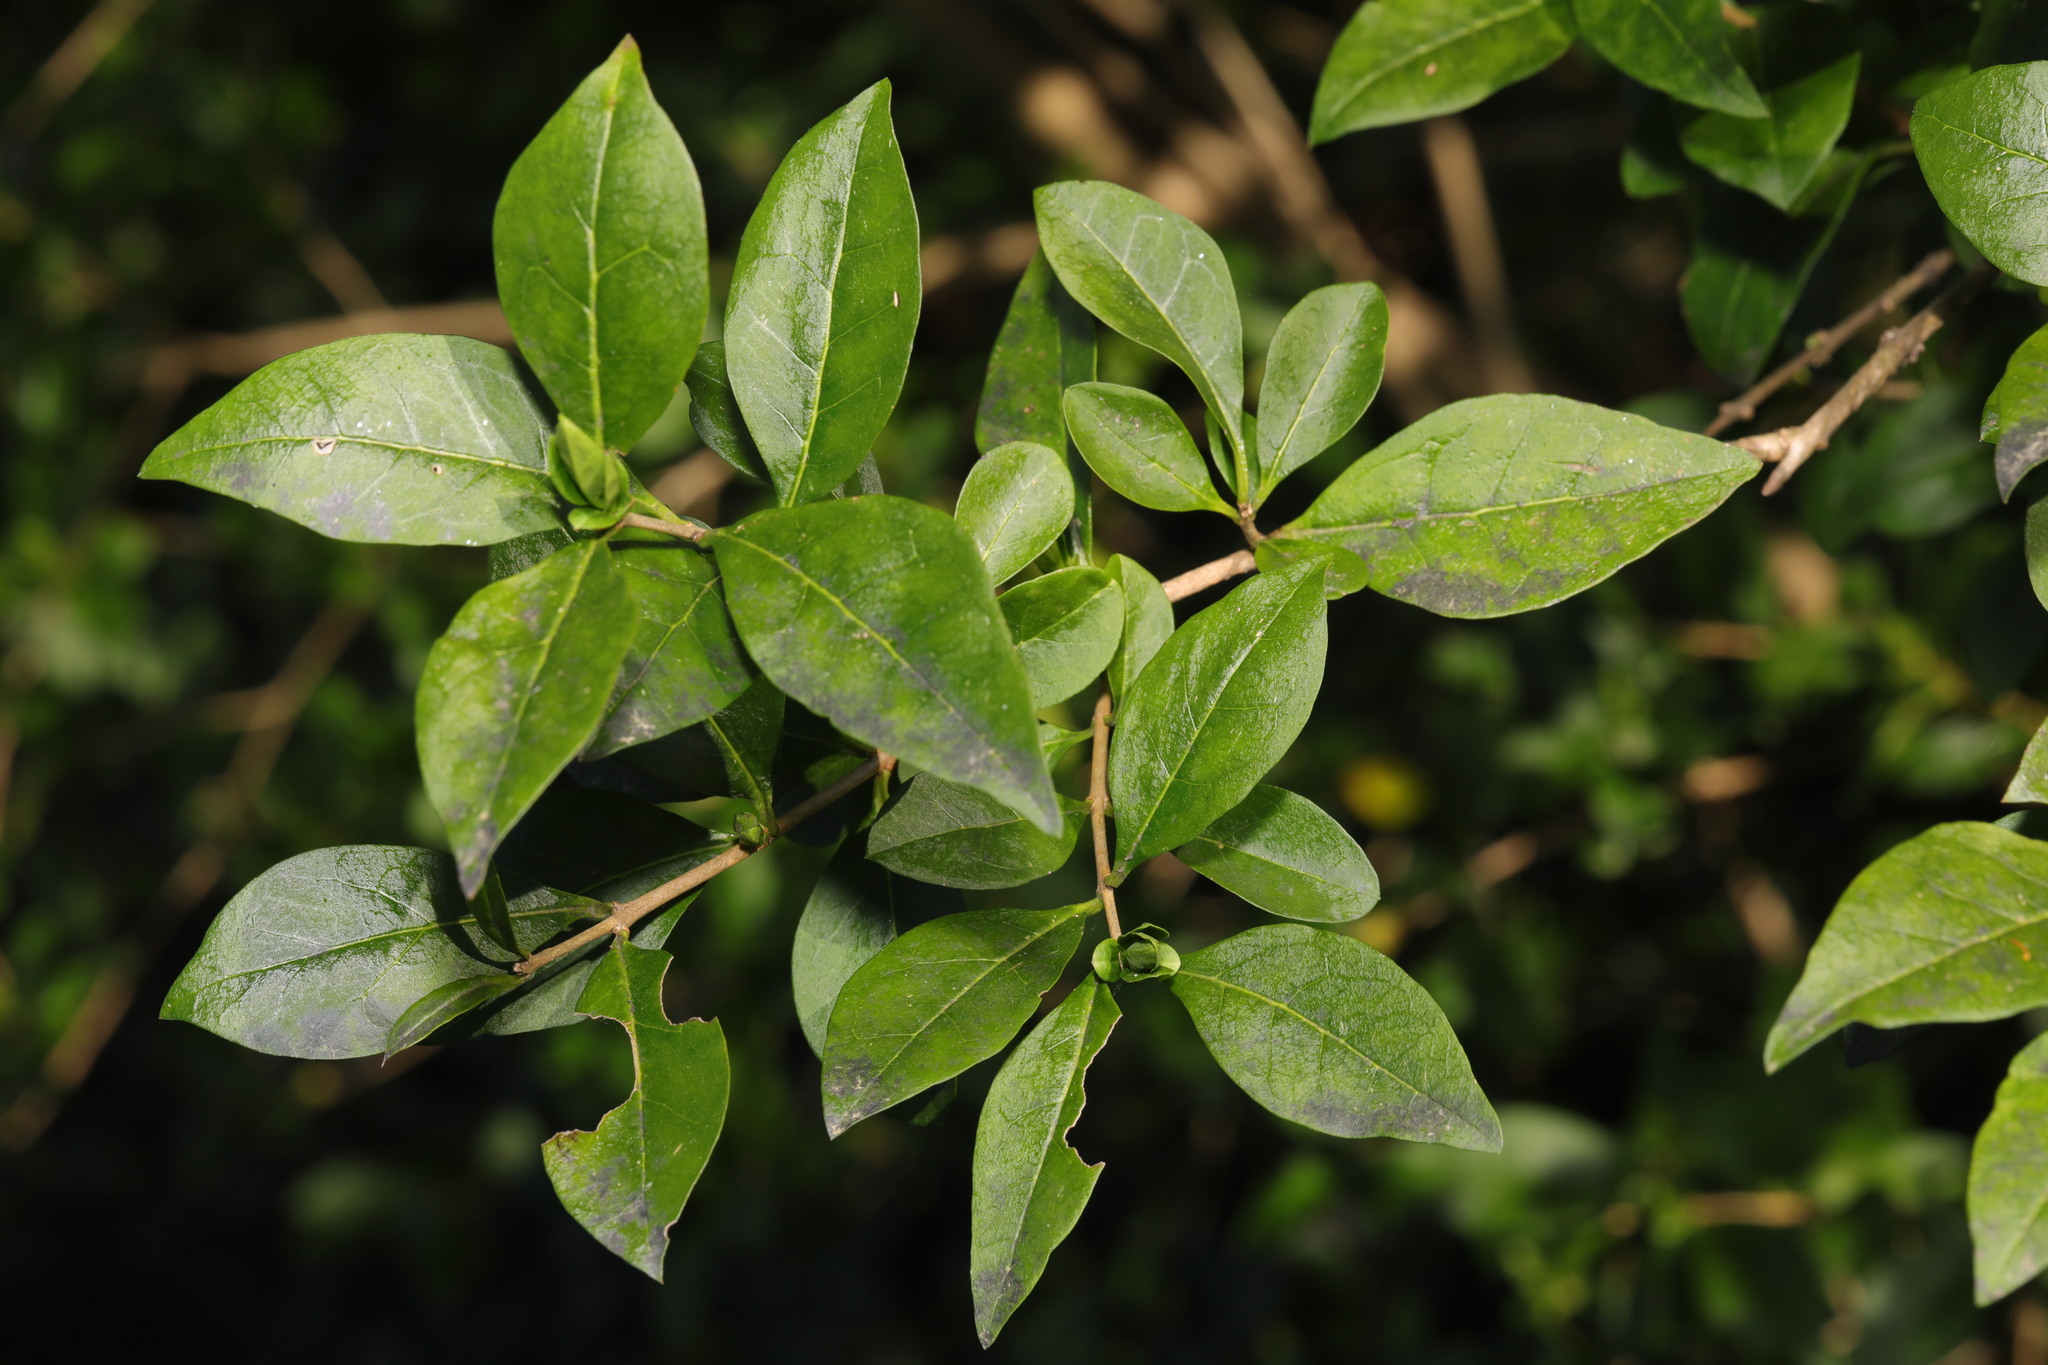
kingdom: Plantae
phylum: Tracheophyta
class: Magnoliopsida
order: Lamiales
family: Oleaceae
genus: Ligustrum
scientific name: Ligustrum ovalifolium
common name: California privet
